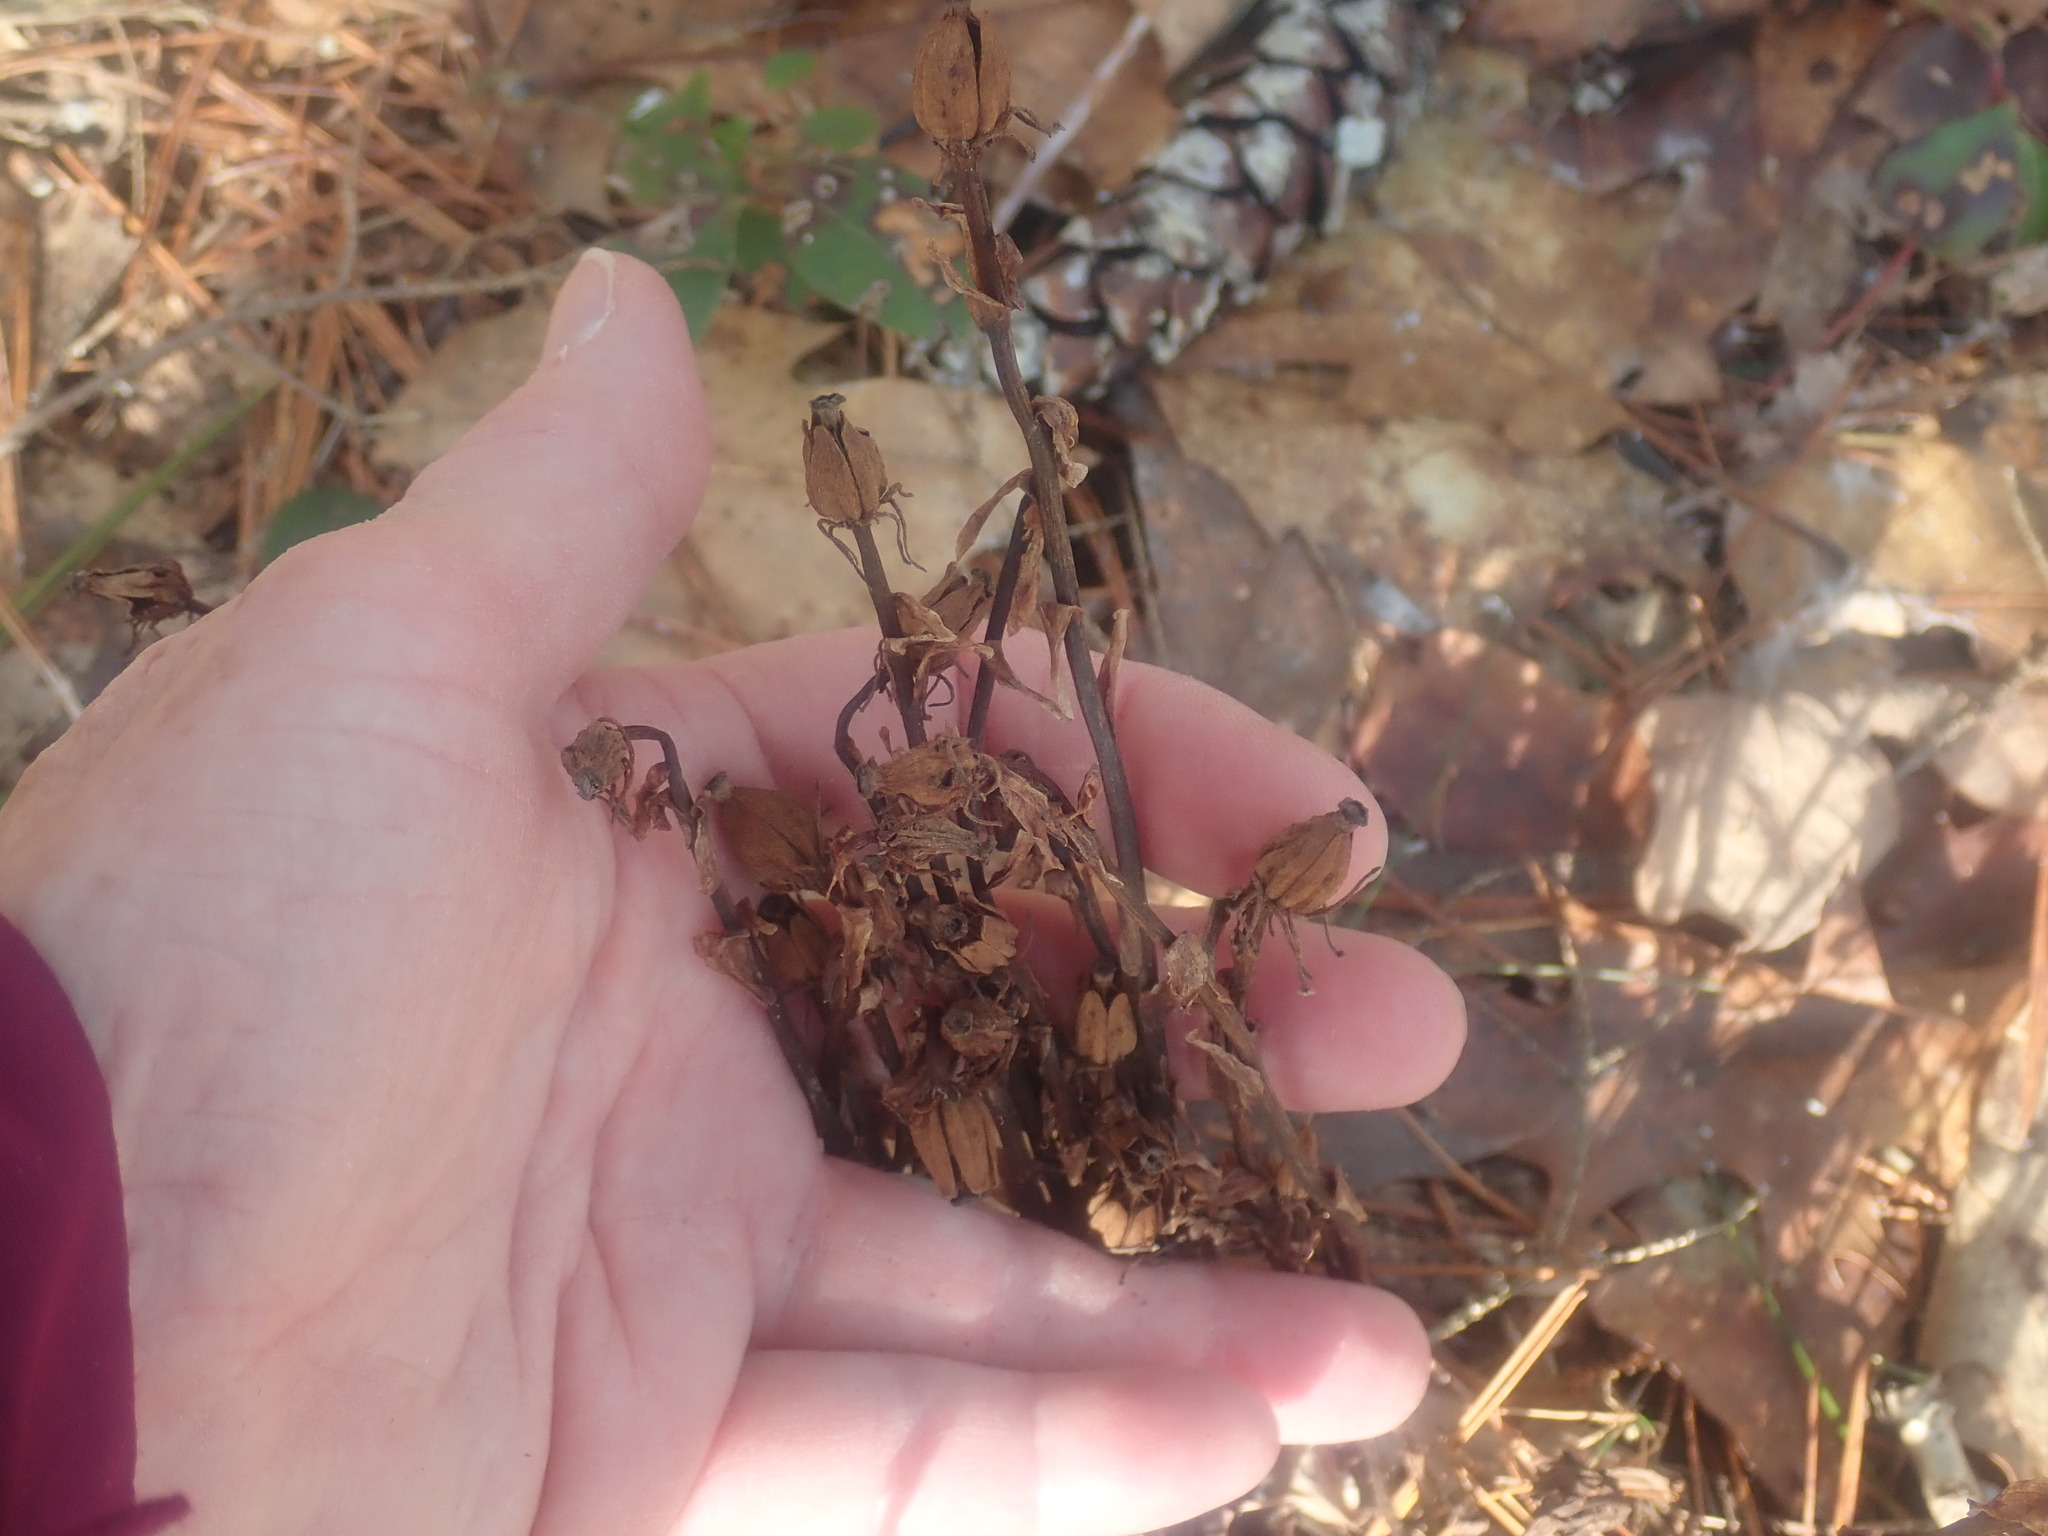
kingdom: Plantae
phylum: Tracheophyta
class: Magnoliopsida
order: Ericales
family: Ericaceae
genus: Monotropa
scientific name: Monotropa uniflora
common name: Convulsion root
